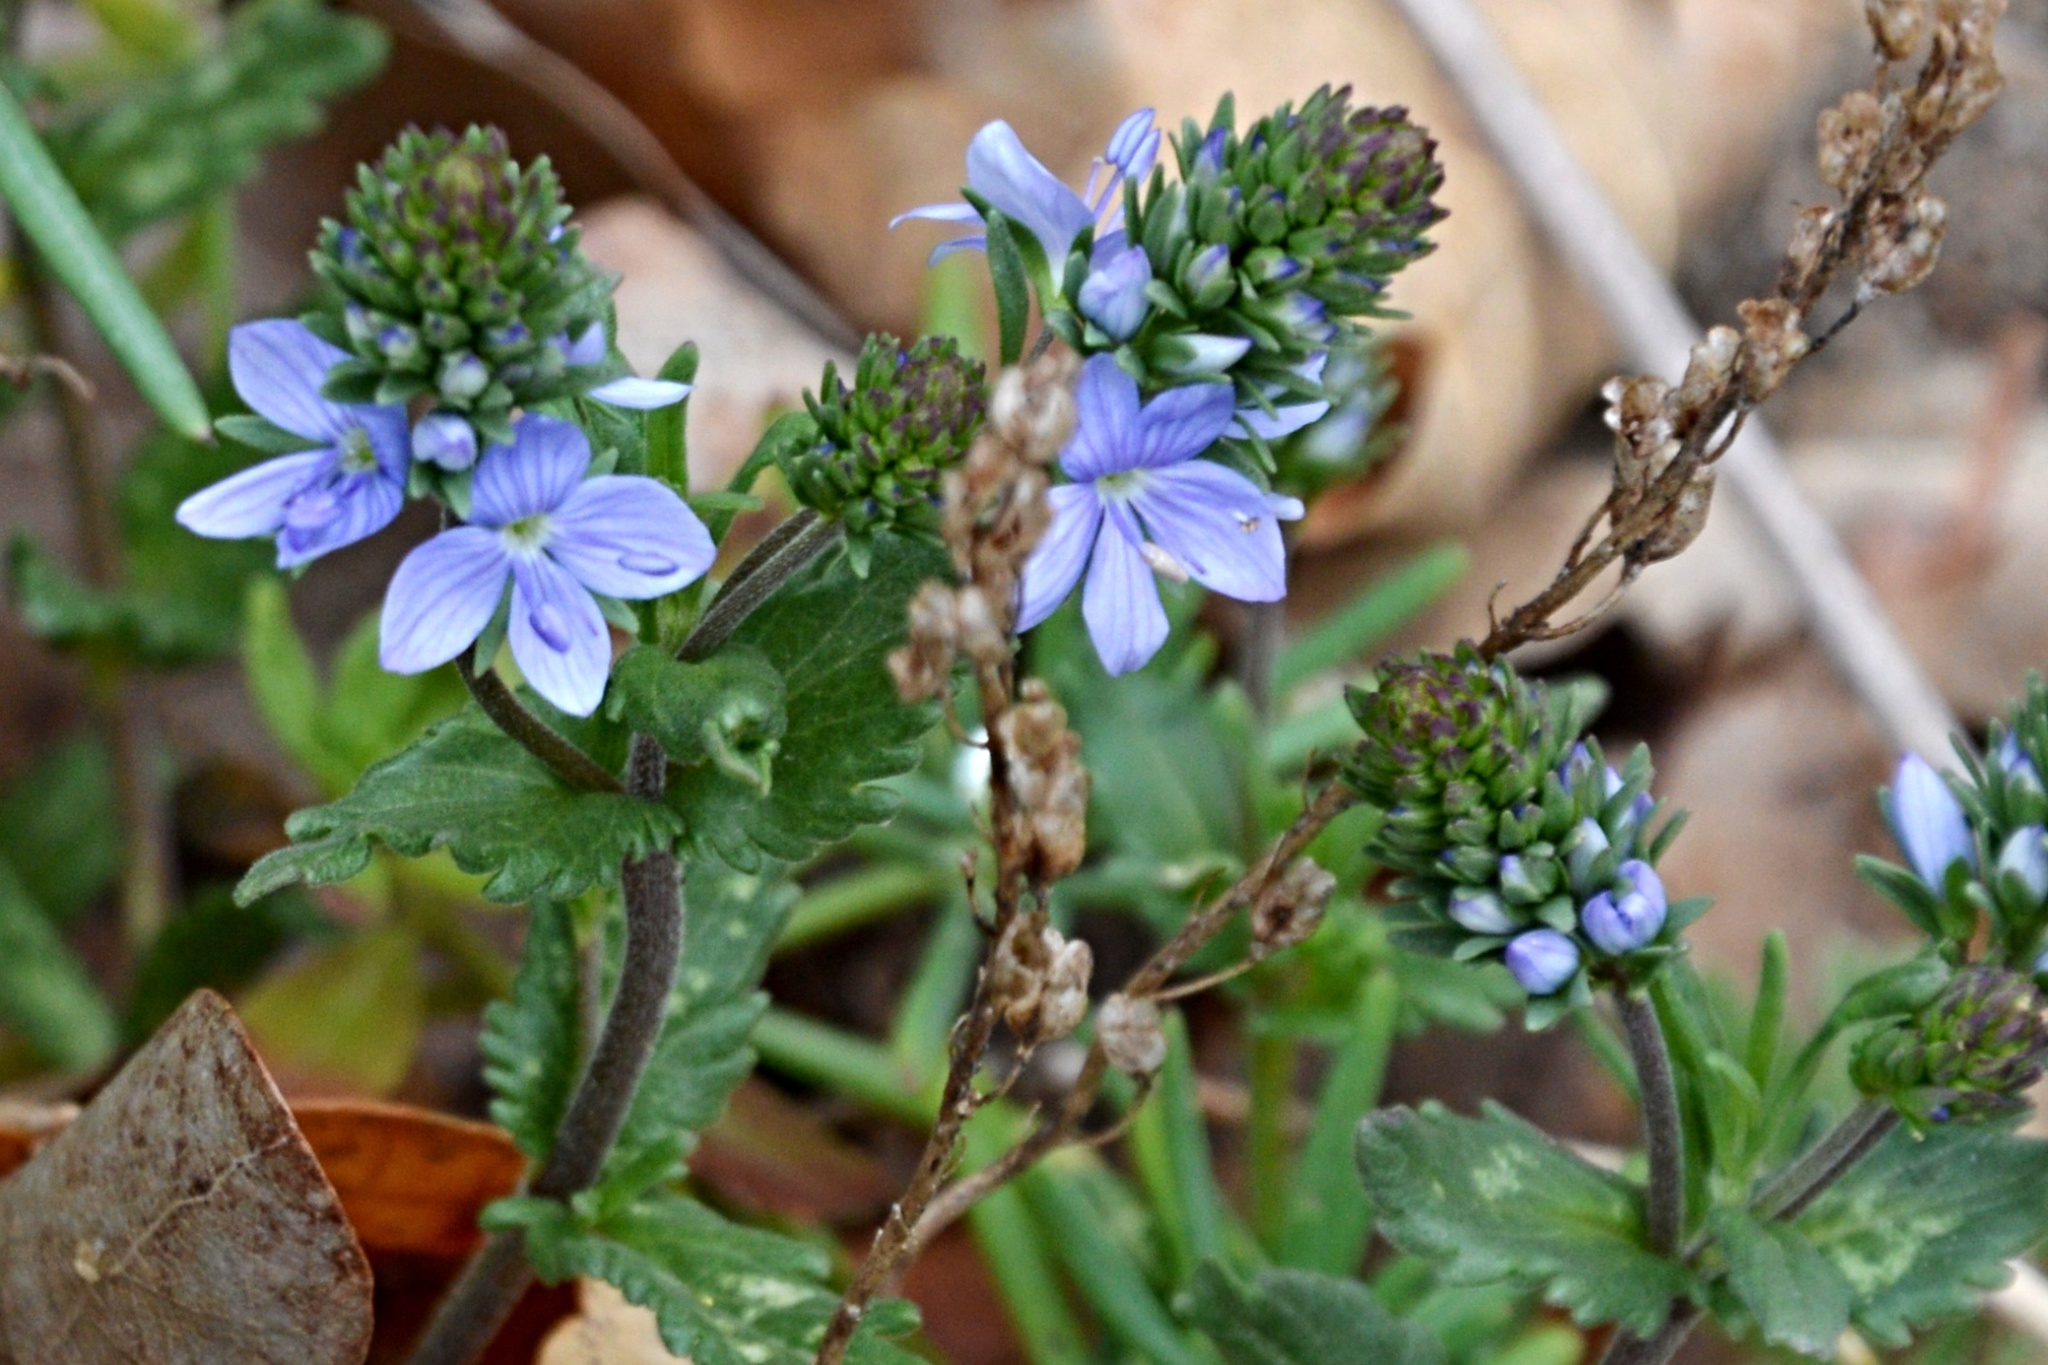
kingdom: Plantae
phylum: Tracheophyta
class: Magnoliopsida
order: Lamiales
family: Plantaginaceae
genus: Veronica
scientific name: Veronica prostrata
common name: Prostrate speedwell
